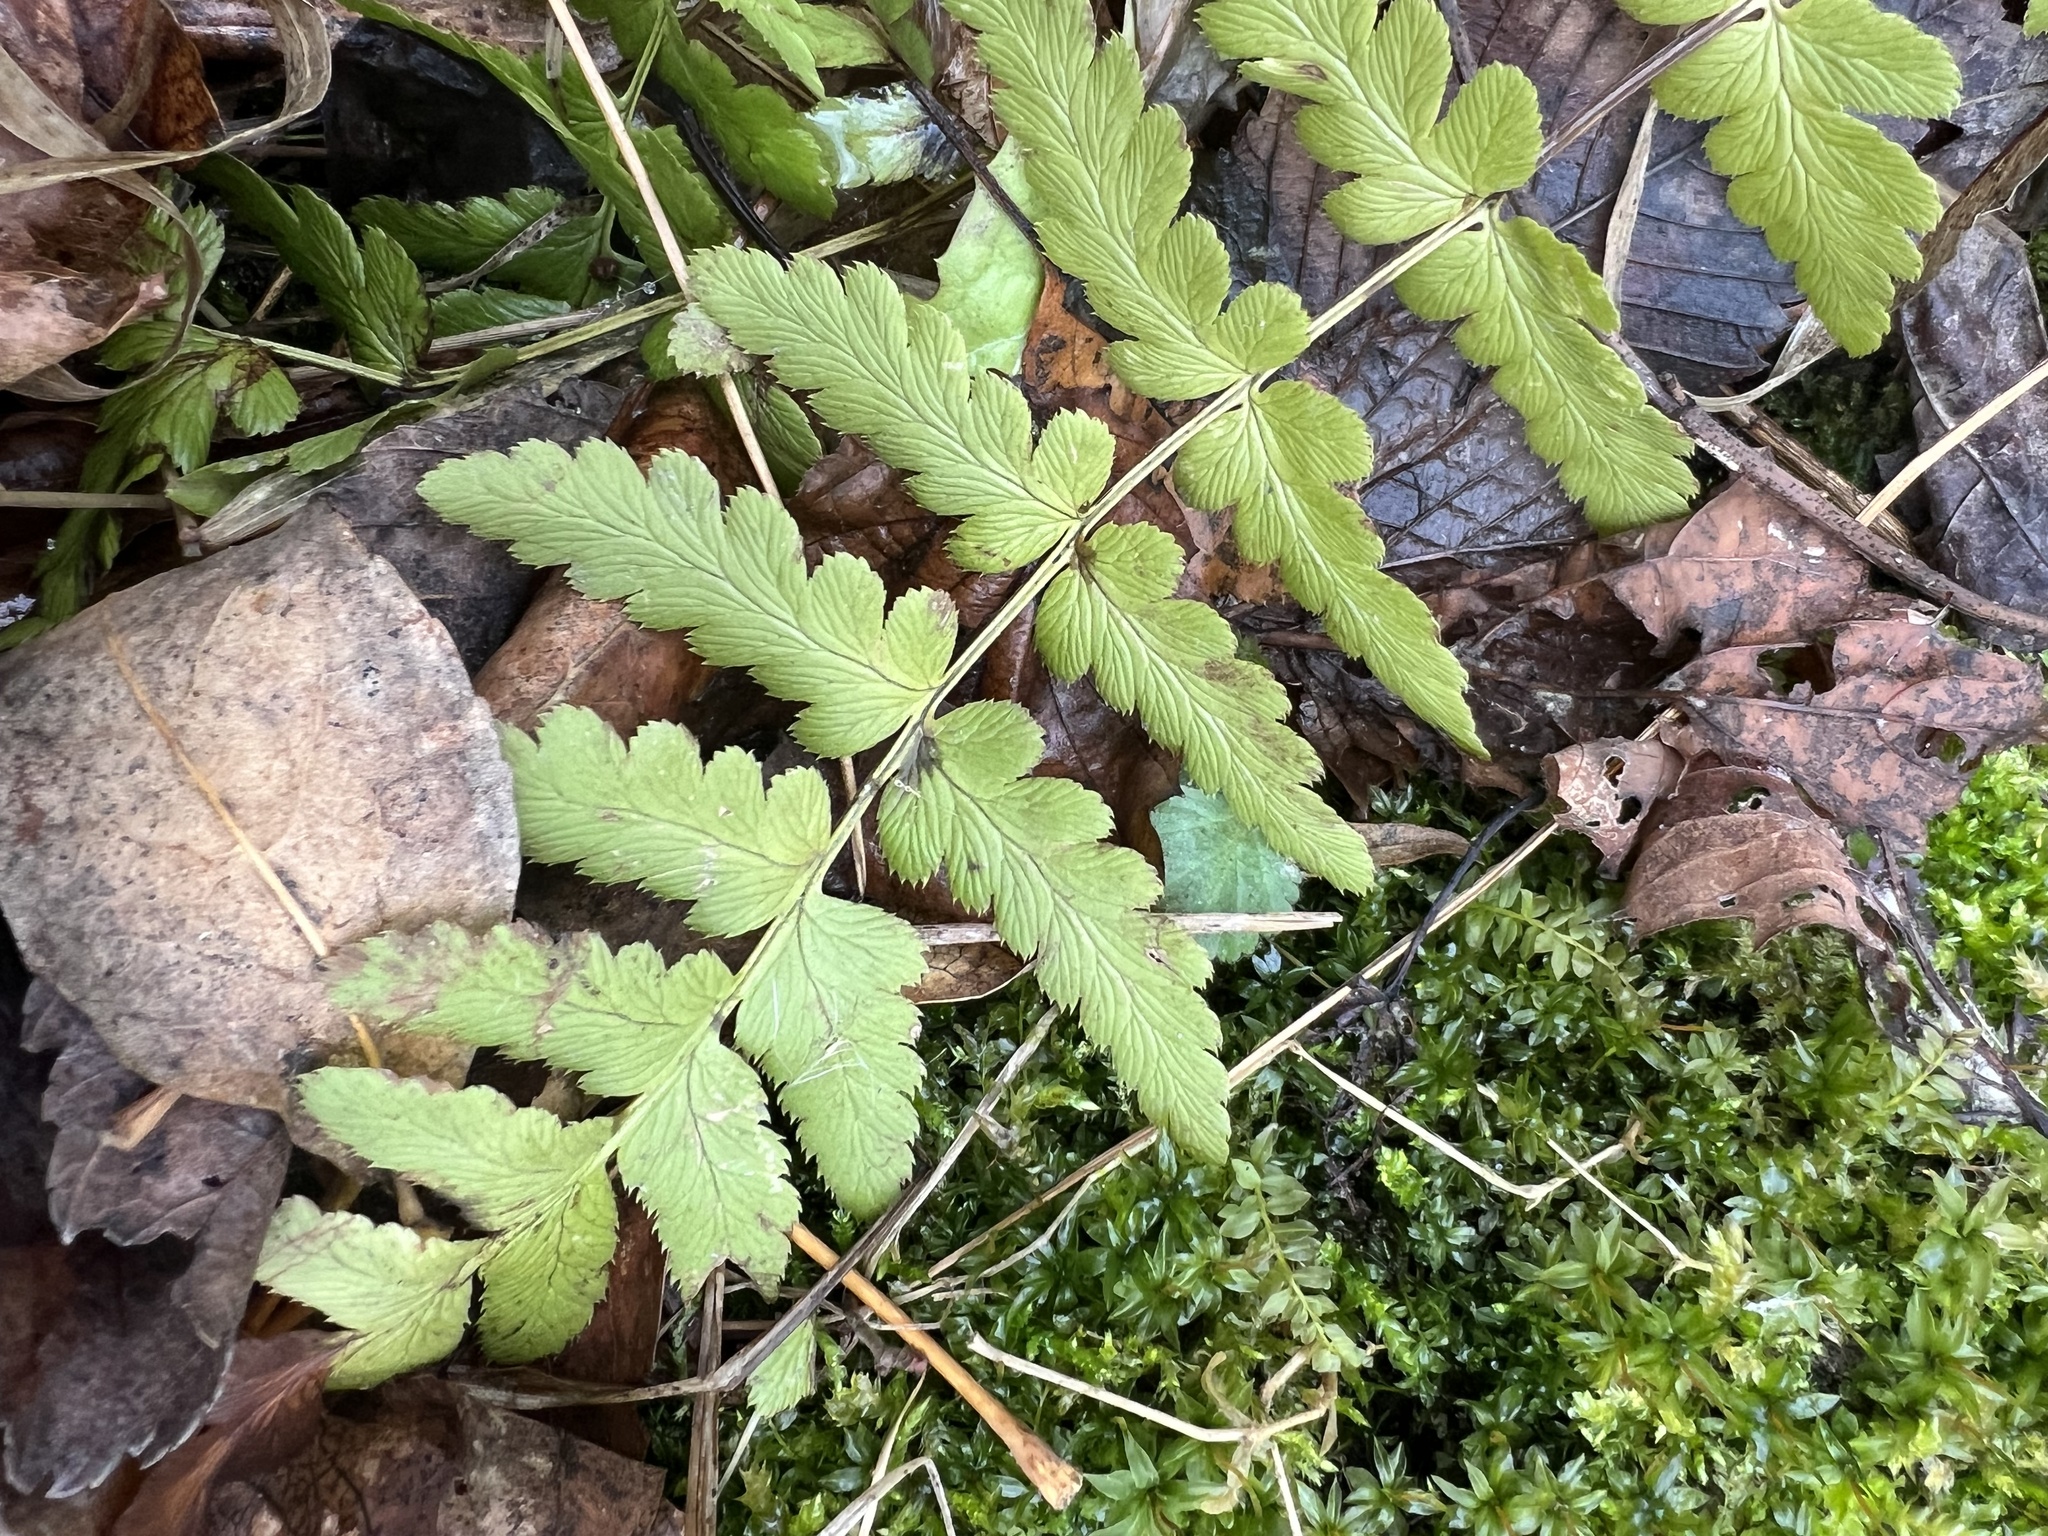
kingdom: Plantae
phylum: Tracheophyta
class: Polypodiopsida
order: Polypodiales
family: Dryopteridaceae
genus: Dryopteris
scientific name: Dryopteris cristata
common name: Crested wood fern
